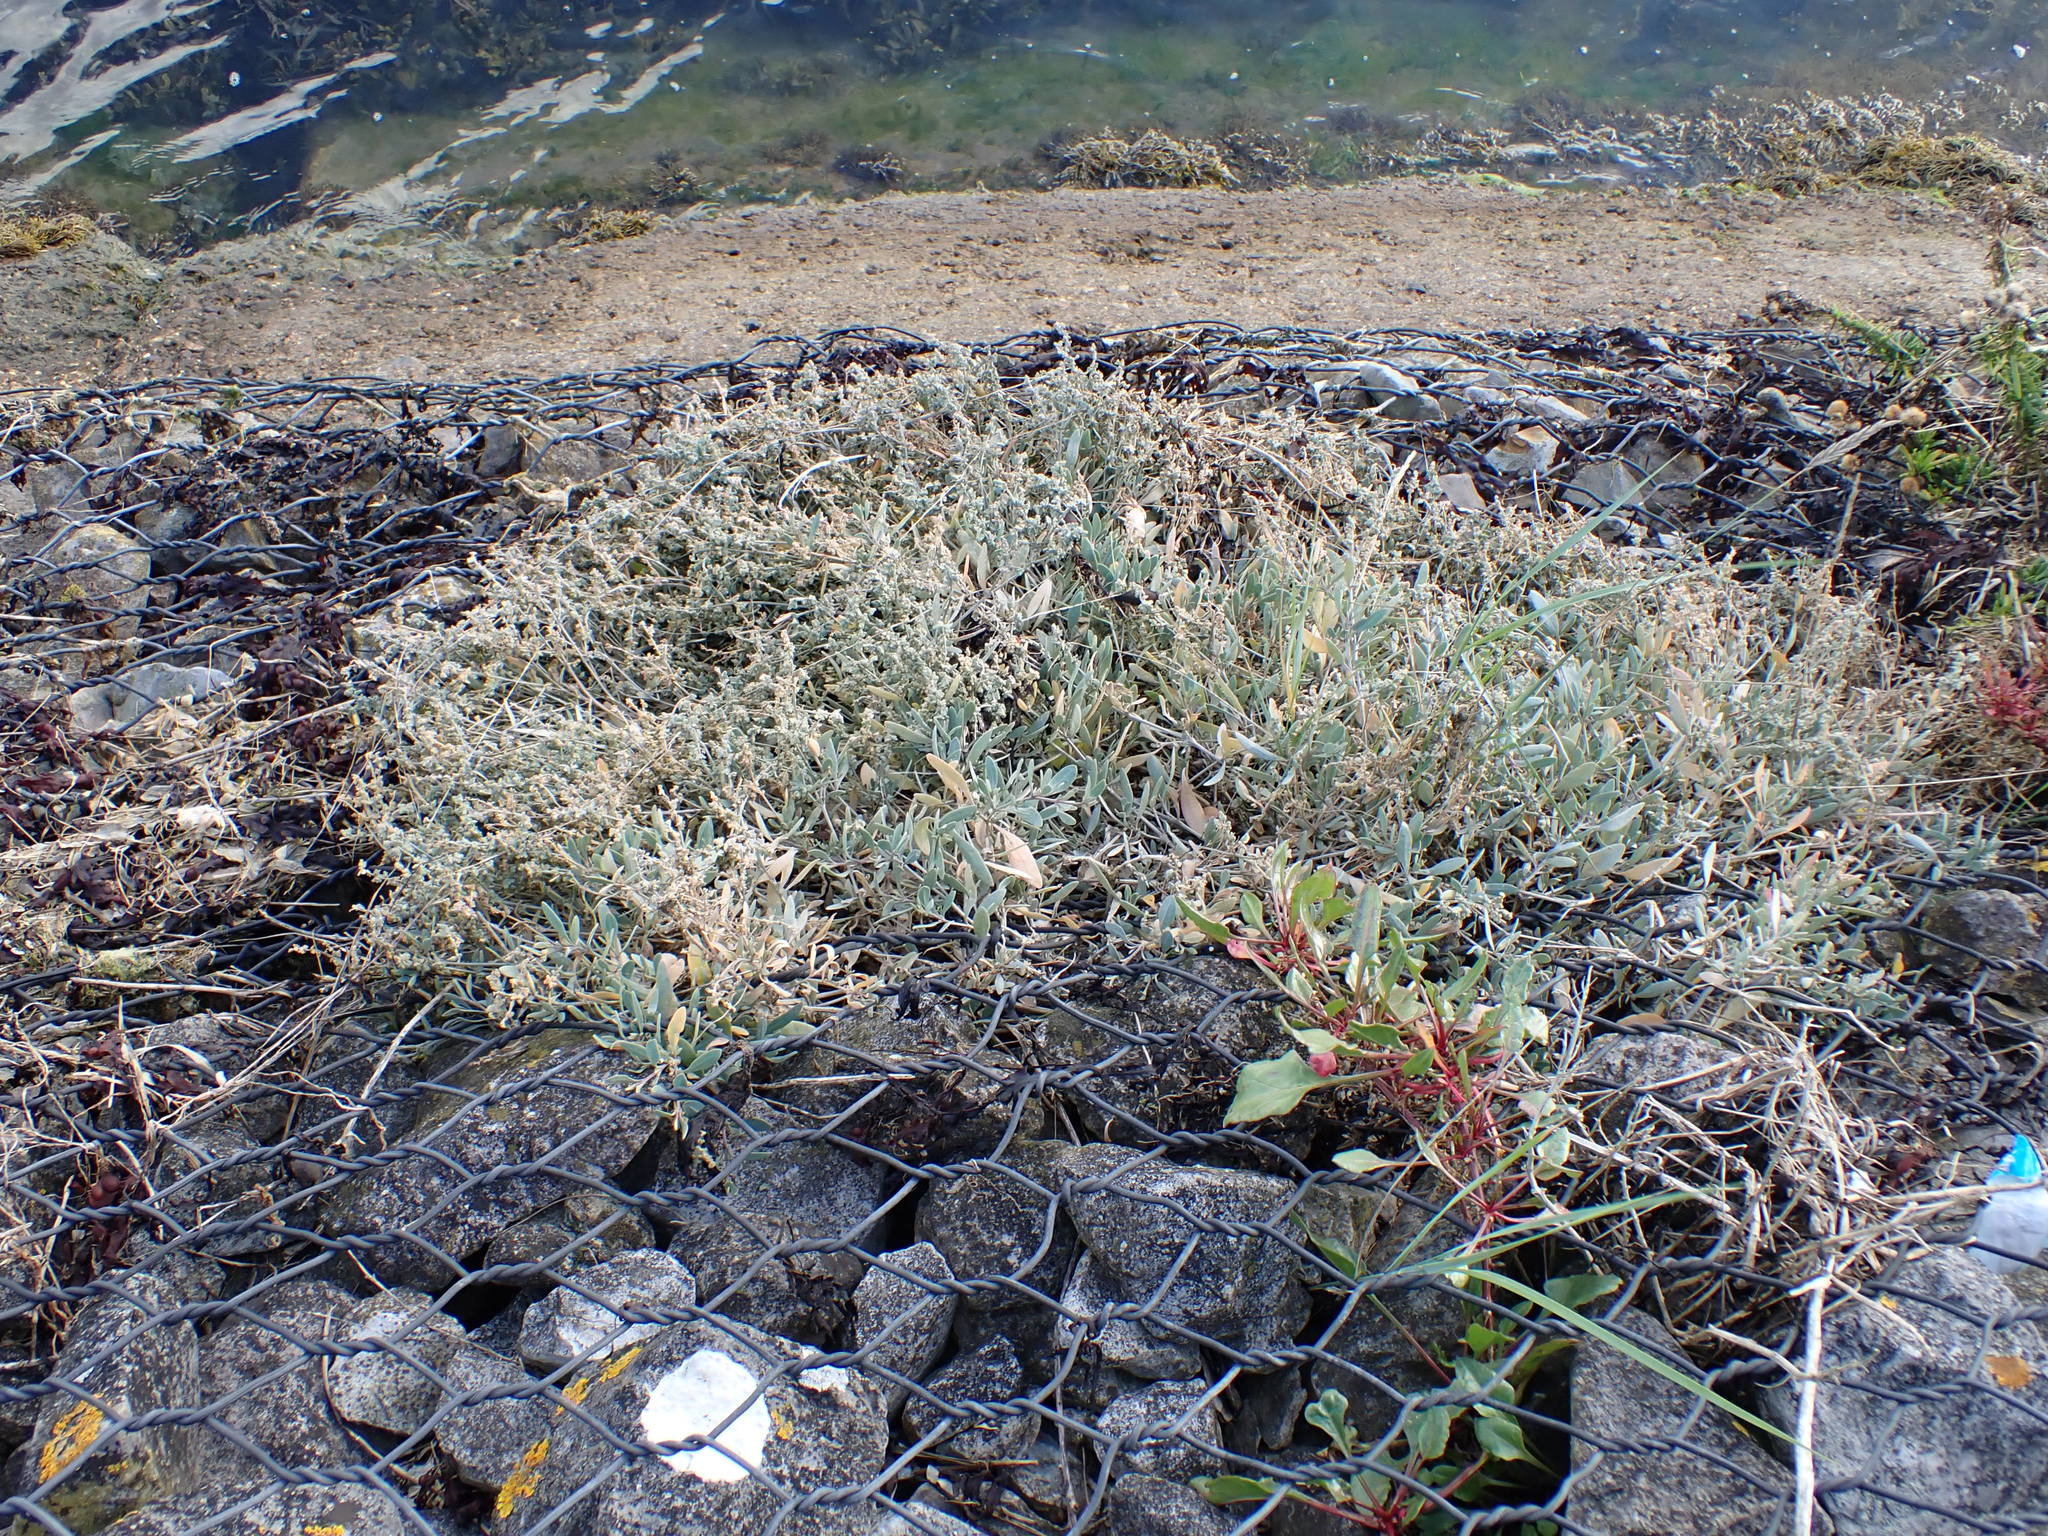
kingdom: Plantae
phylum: Tracheophyta
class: Magnoliopsida
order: Caryophyllales
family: Amaranthaceae
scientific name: Amaranthaceae
